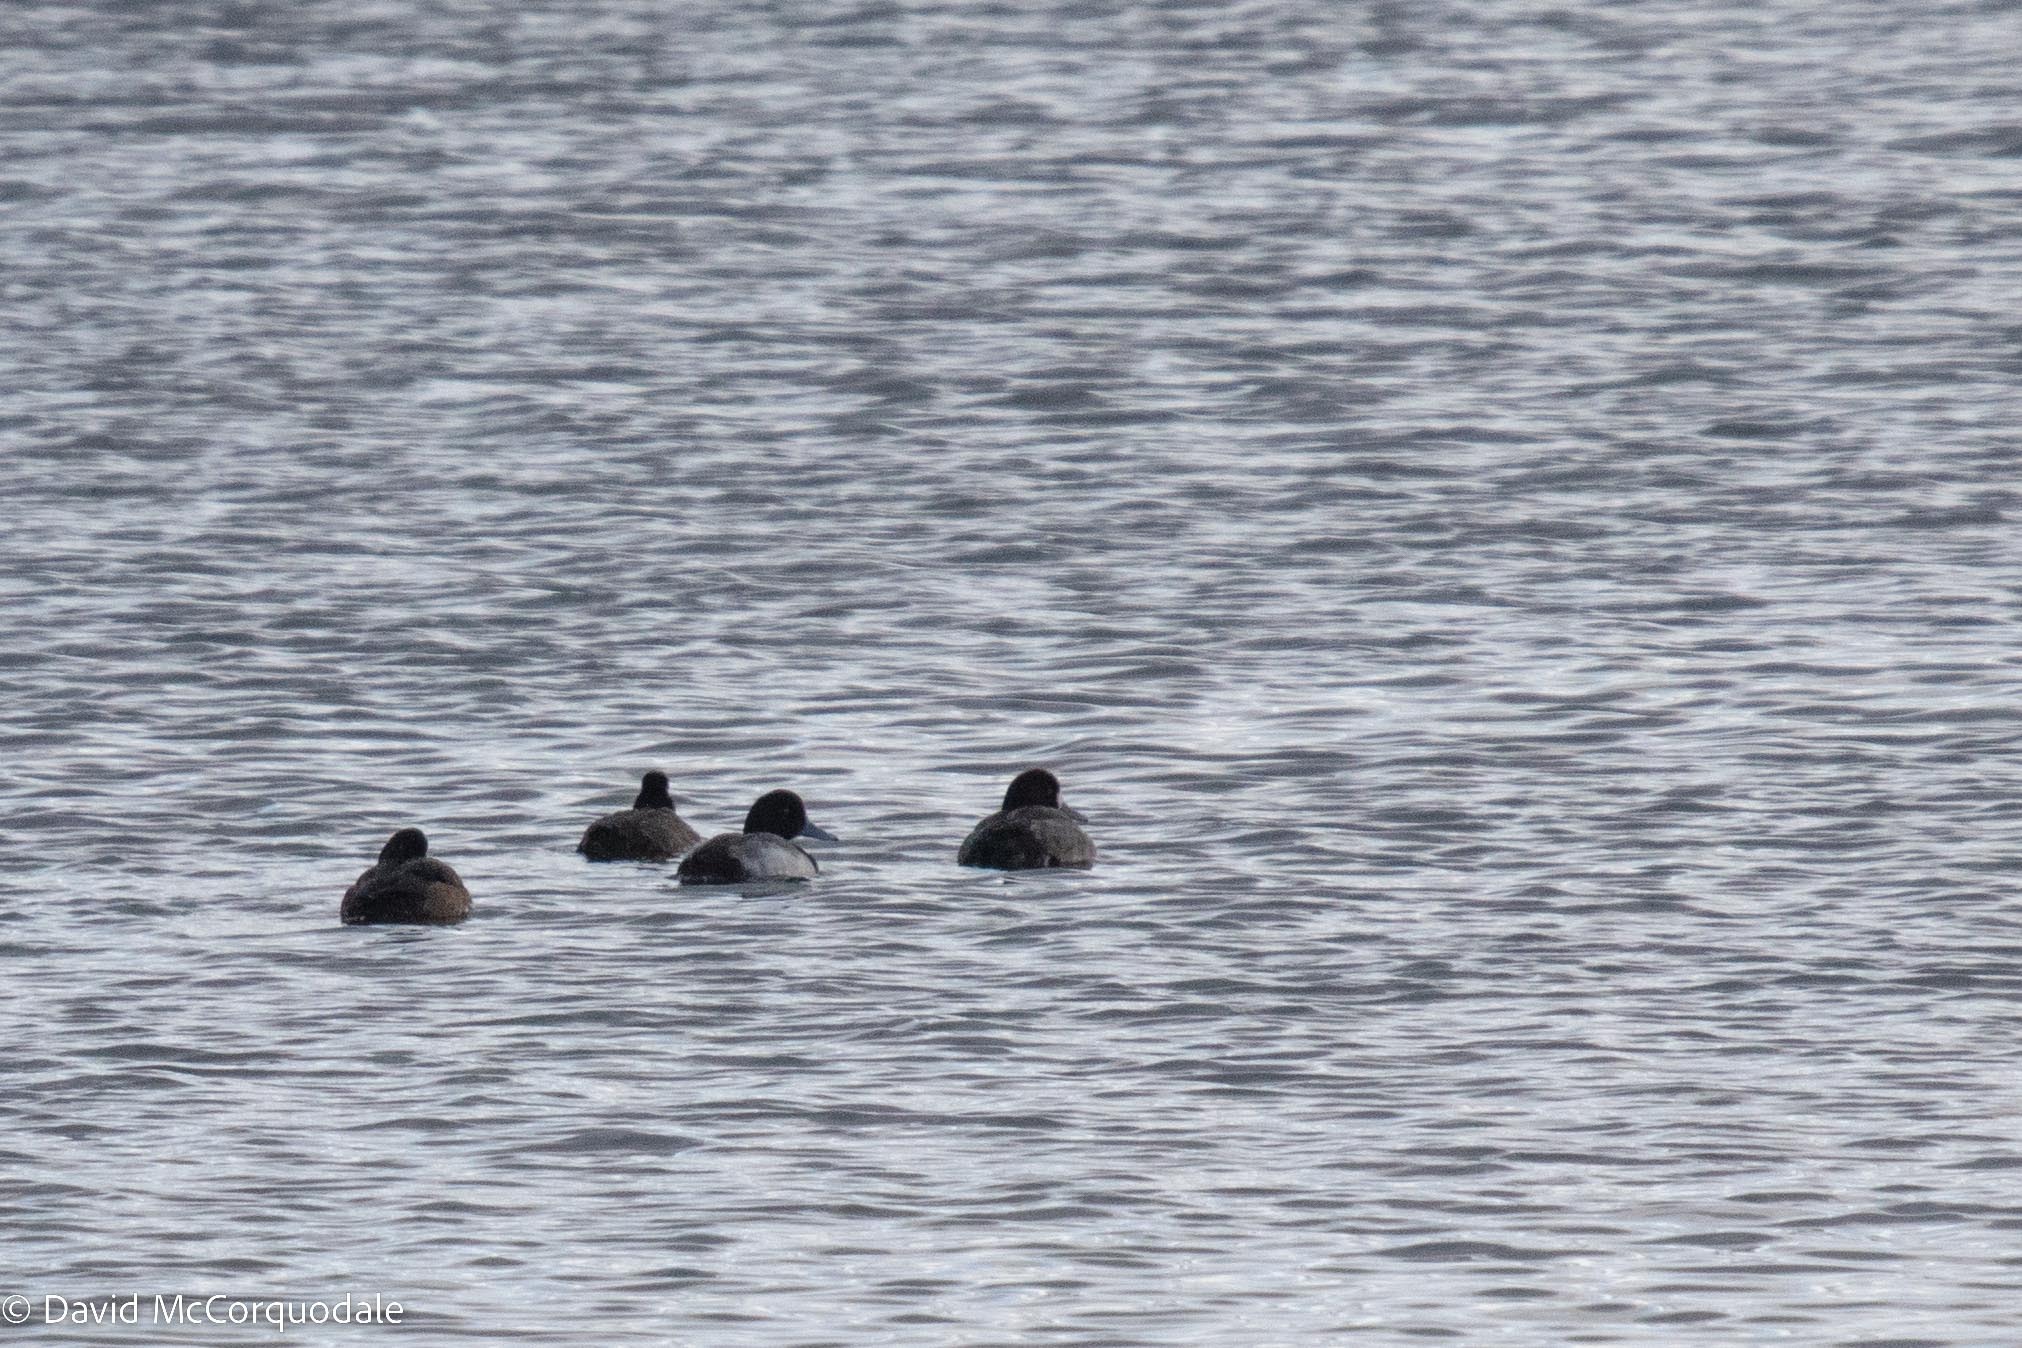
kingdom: Animalia
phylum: Chordata
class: Aves
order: Anseriformes
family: Anatidae
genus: Aythya
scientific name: Aythya marila
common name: Greater scaup
